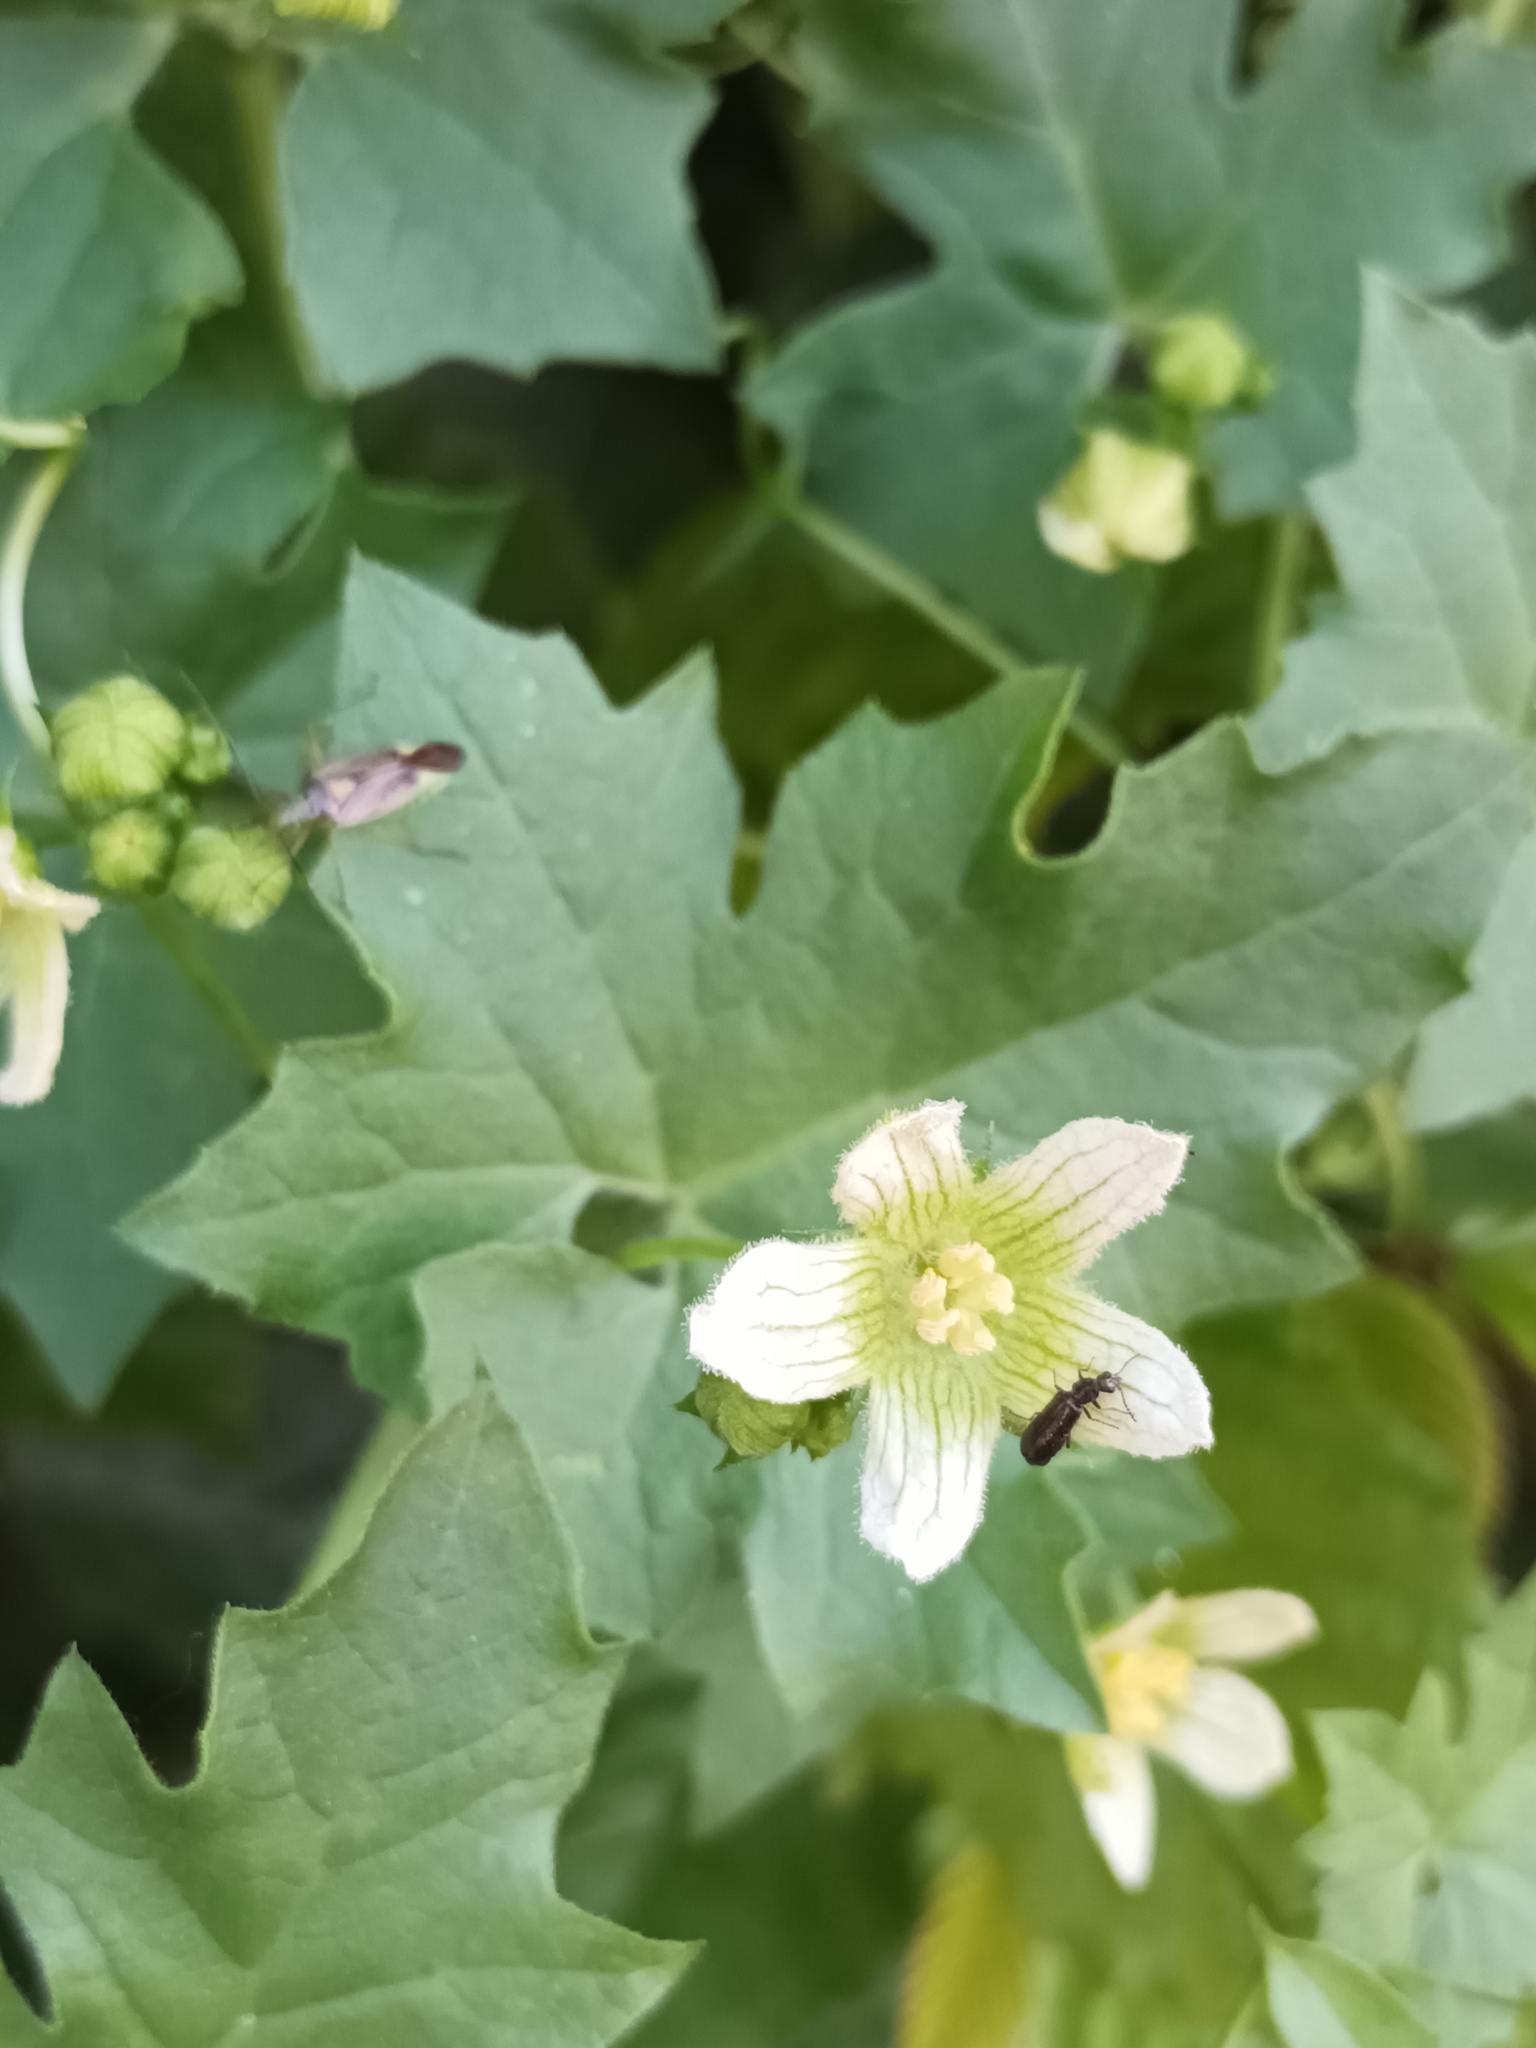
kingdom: Plantae
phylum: Tracheophyta
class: Magnoliopsida
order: Cucurbitales
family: Cucurbitaceae
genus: Bryonia
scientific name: Bryonia cretica
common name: Cretan bryony
